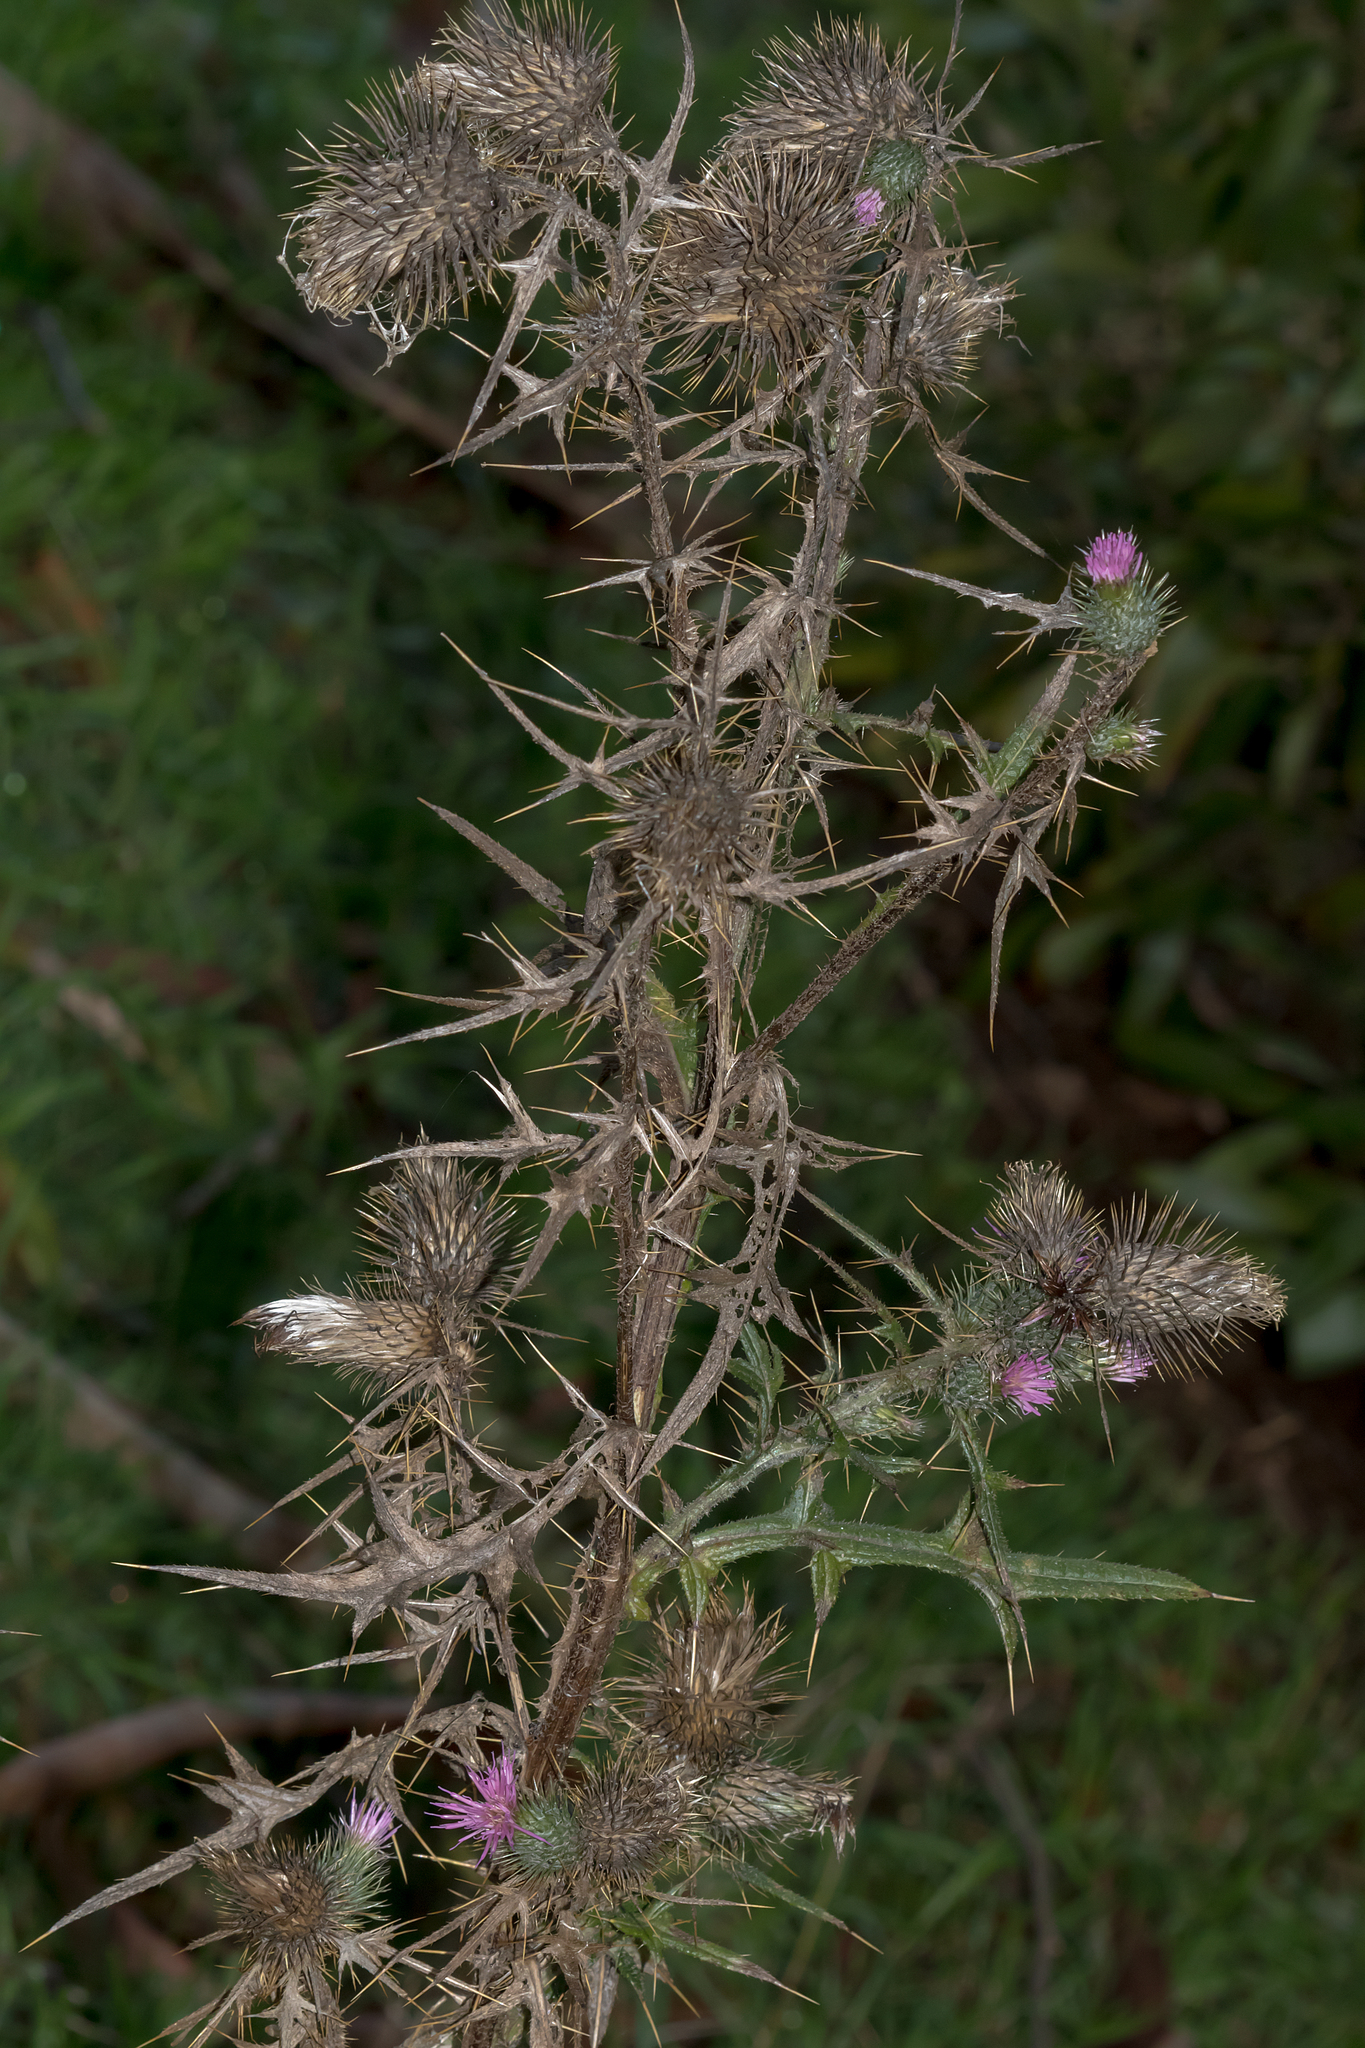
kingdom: Plantae
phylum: Tracheophyta
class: Magnoliopsida
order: Asterales
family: Asteraceae
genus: Cirsium
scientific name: Cirsium vulgare
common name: Bull thistle
